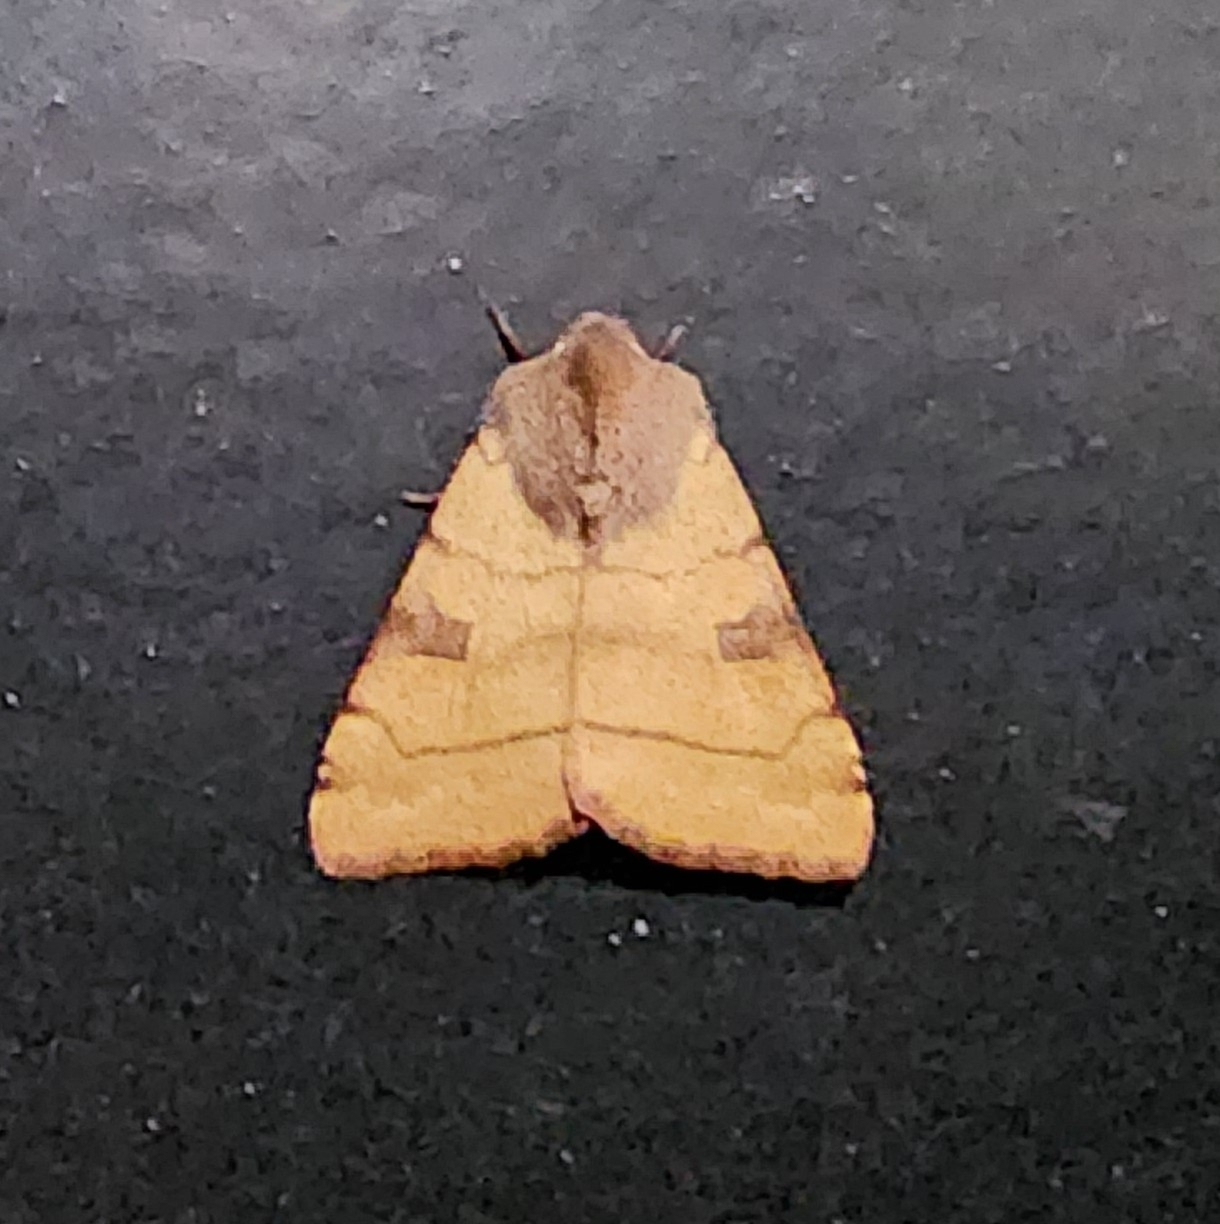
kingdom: Animalia
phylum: Arthropoda
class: Insecta
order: Lepidoptera
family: Noctuidae
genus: Choephora
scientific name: Choephora fungorum
